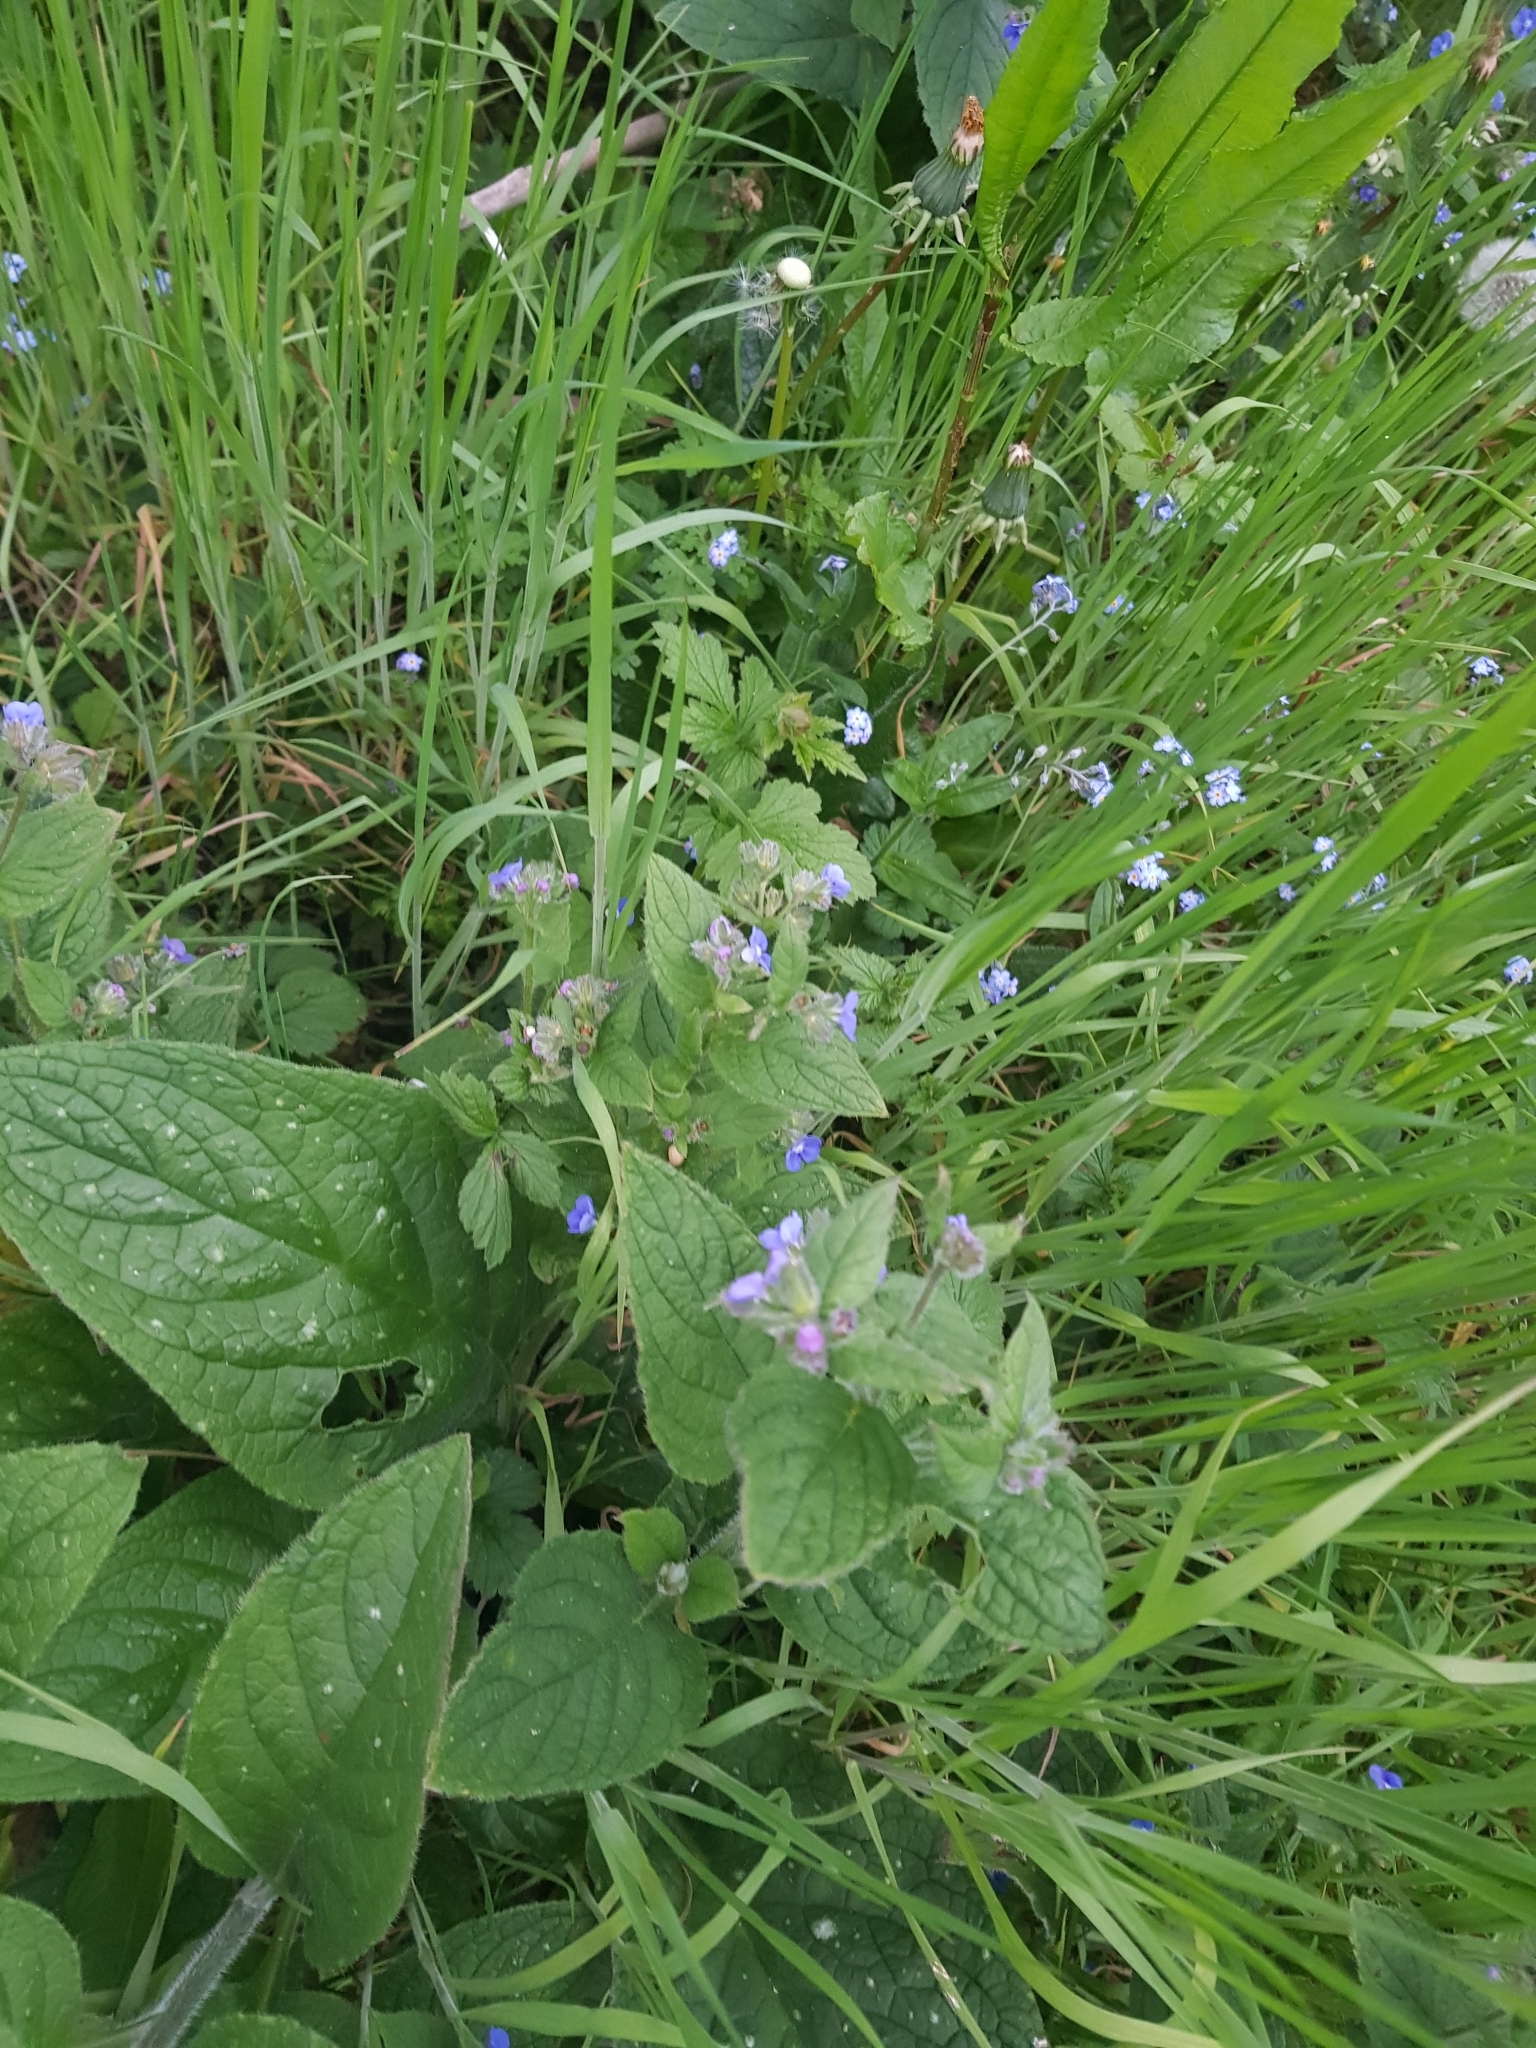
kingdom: Plantae
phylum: Tracheophyta
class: Magnoliopsida
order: Boraginales
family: Boraginaceae
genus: Pentaglottis
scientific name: Pentaglottis sempervirens
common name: Green alkanet
